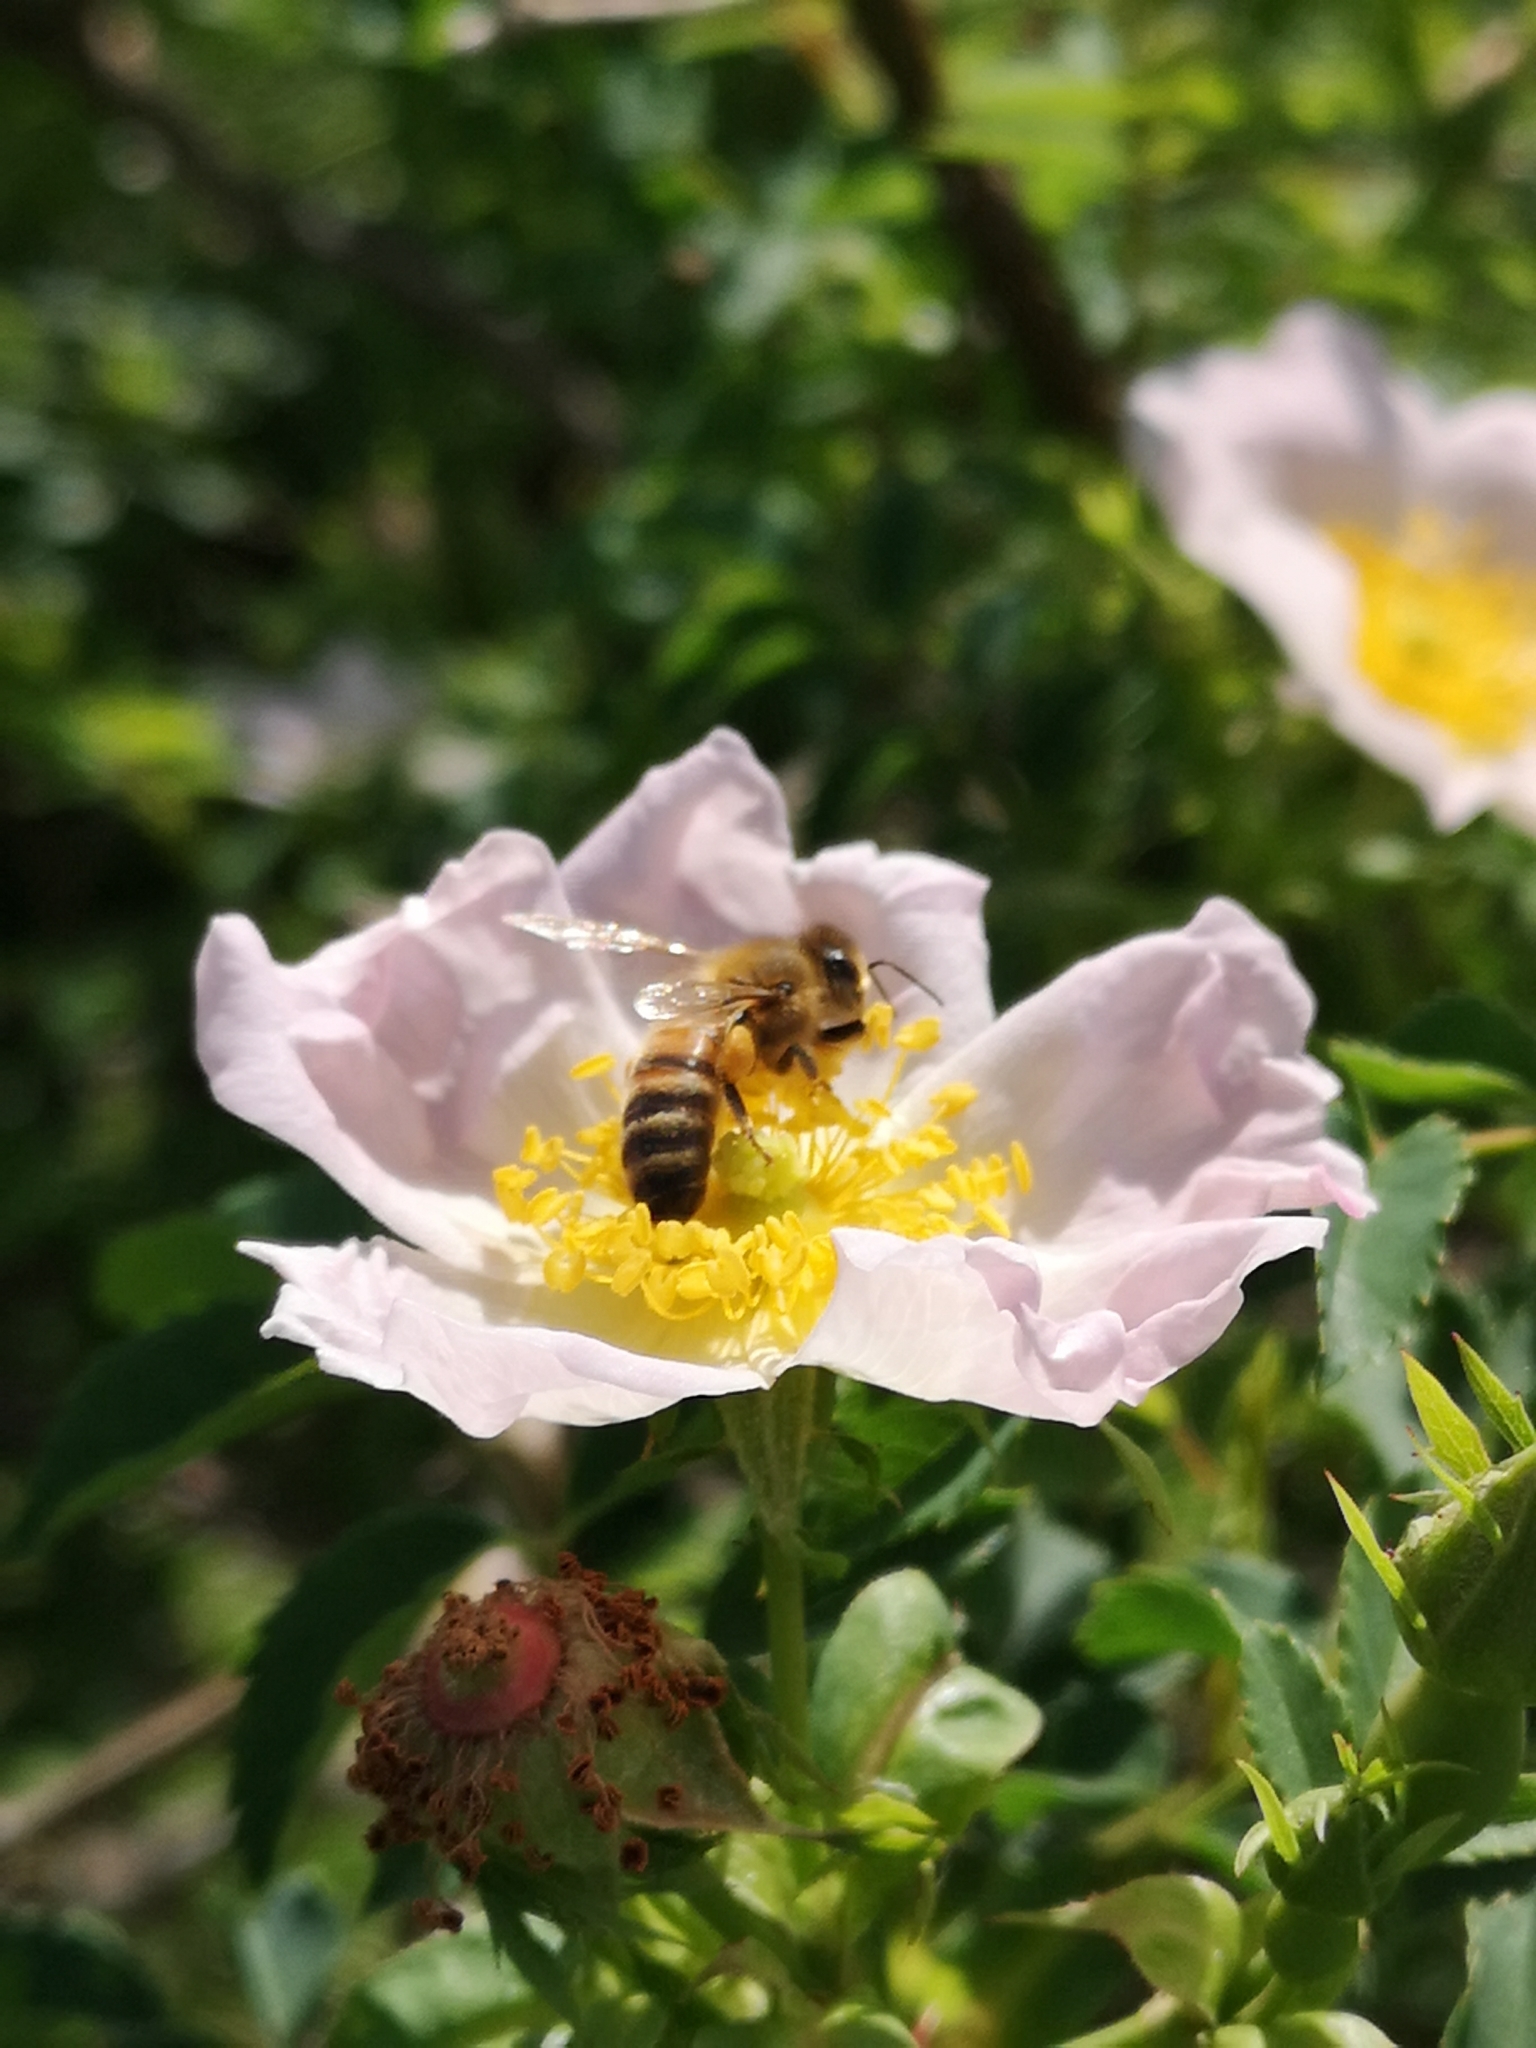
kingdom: Animalia
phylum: Arthropoda
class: Insecta
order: Hymenoptera
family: Apidae
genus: Apis
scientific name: Apis mellifera
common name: Honey bee
